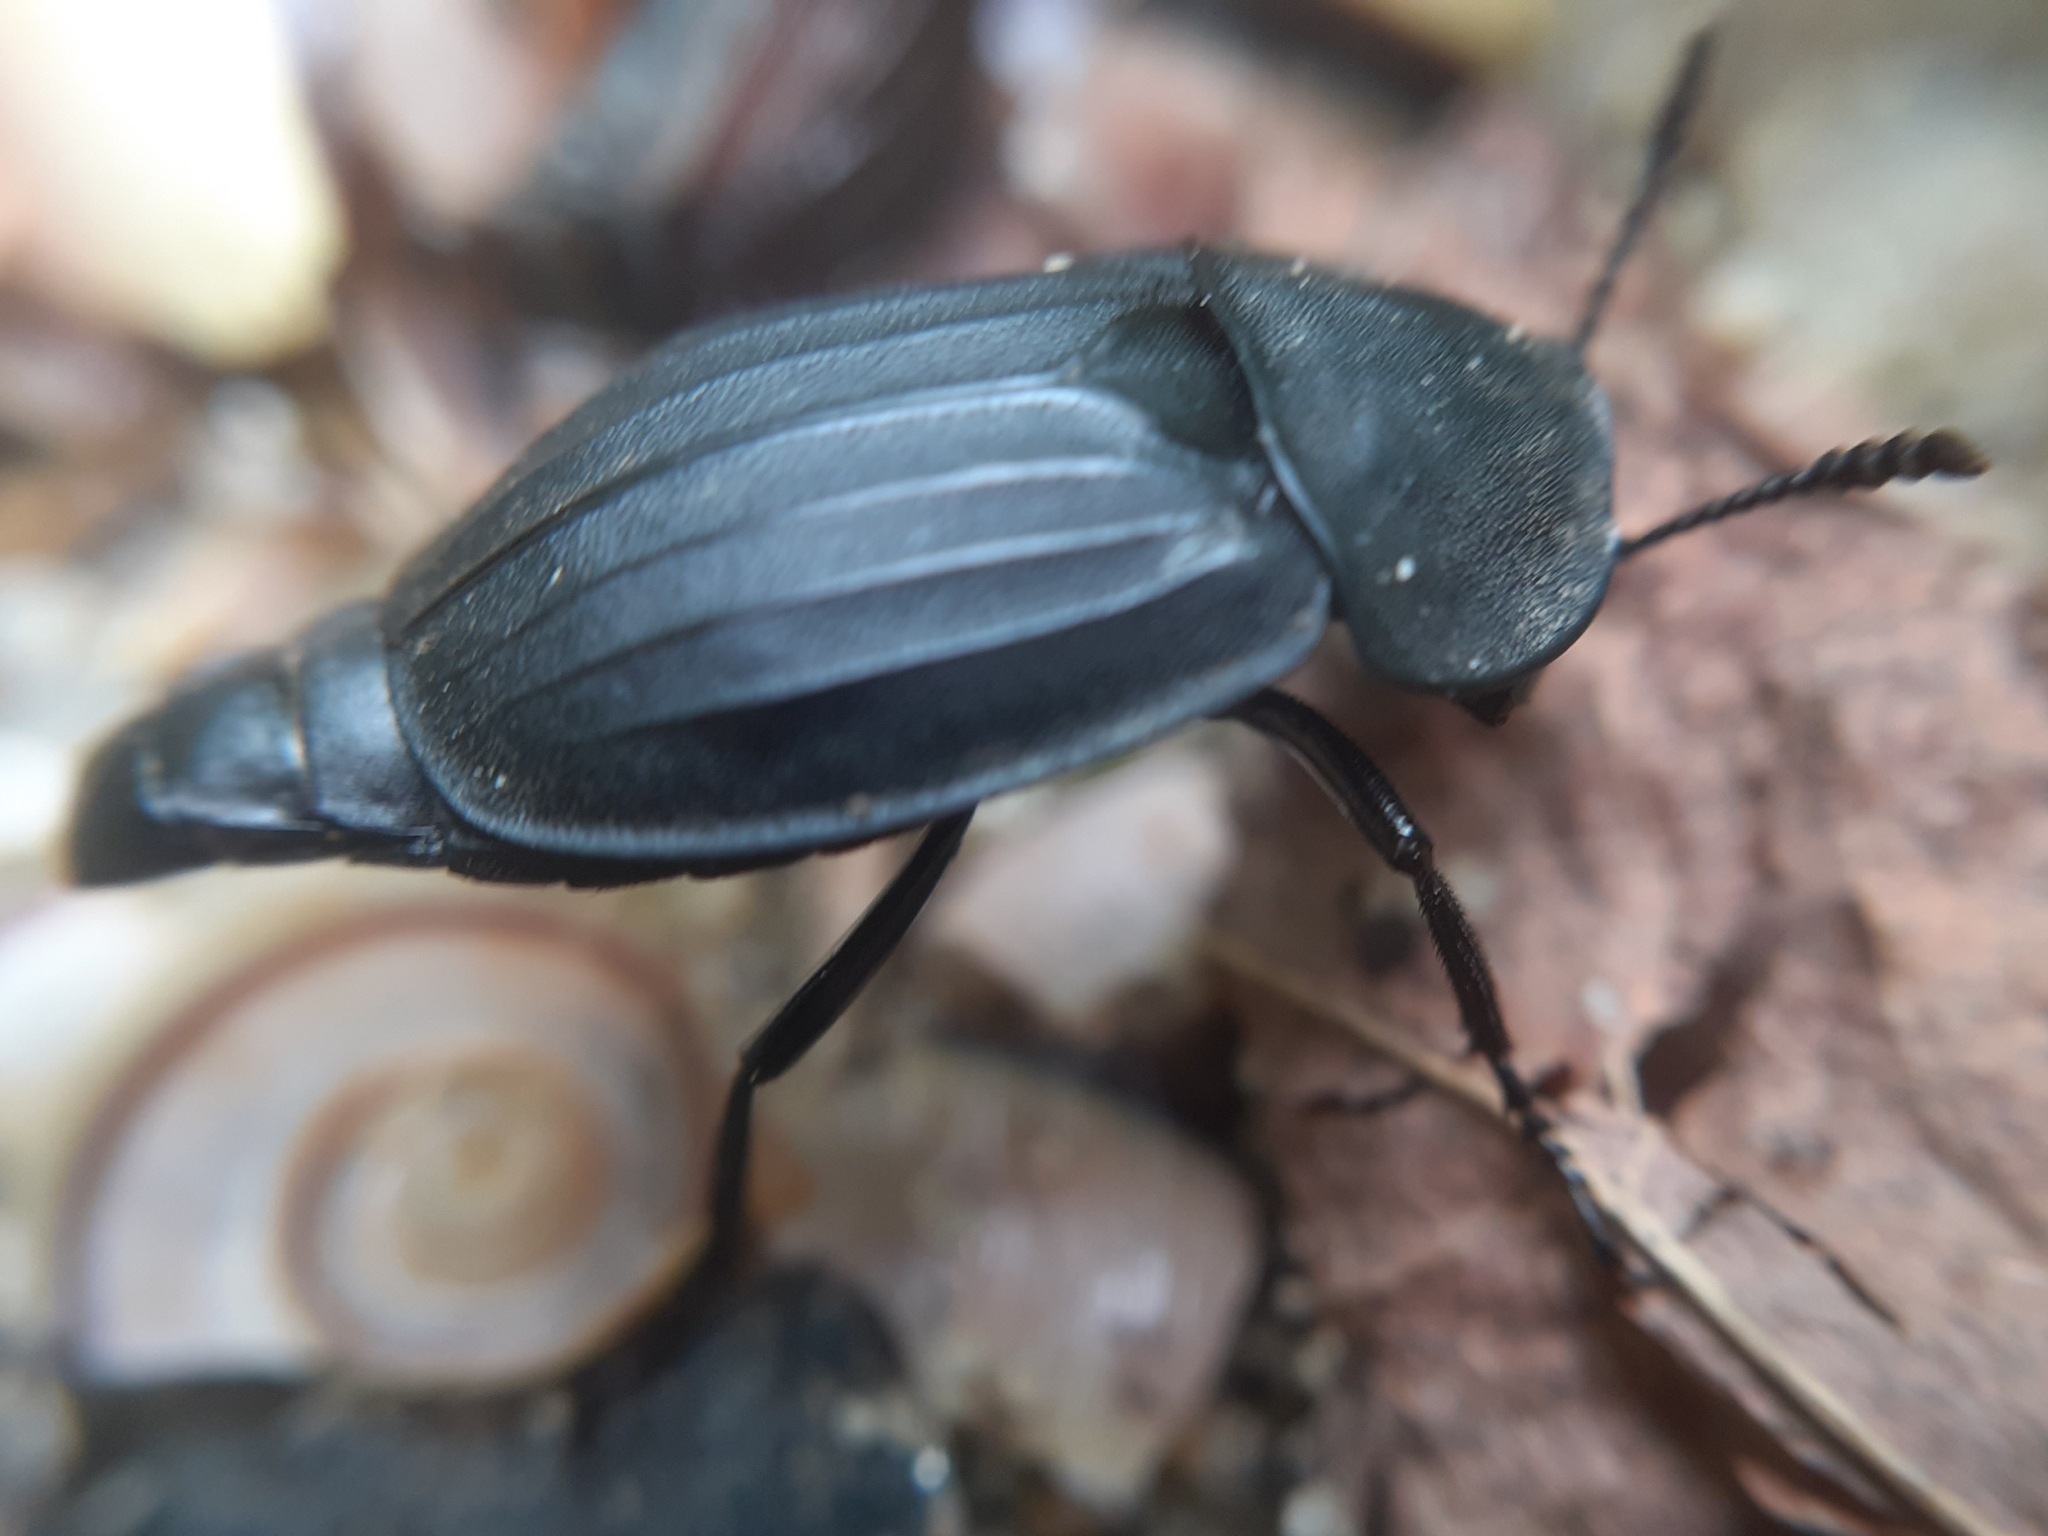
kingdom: Animalia
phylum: Arthropoda
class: Insecta
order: Coleoptera
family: Staphylinidae
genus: Silpha
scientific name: Silpha tristis
